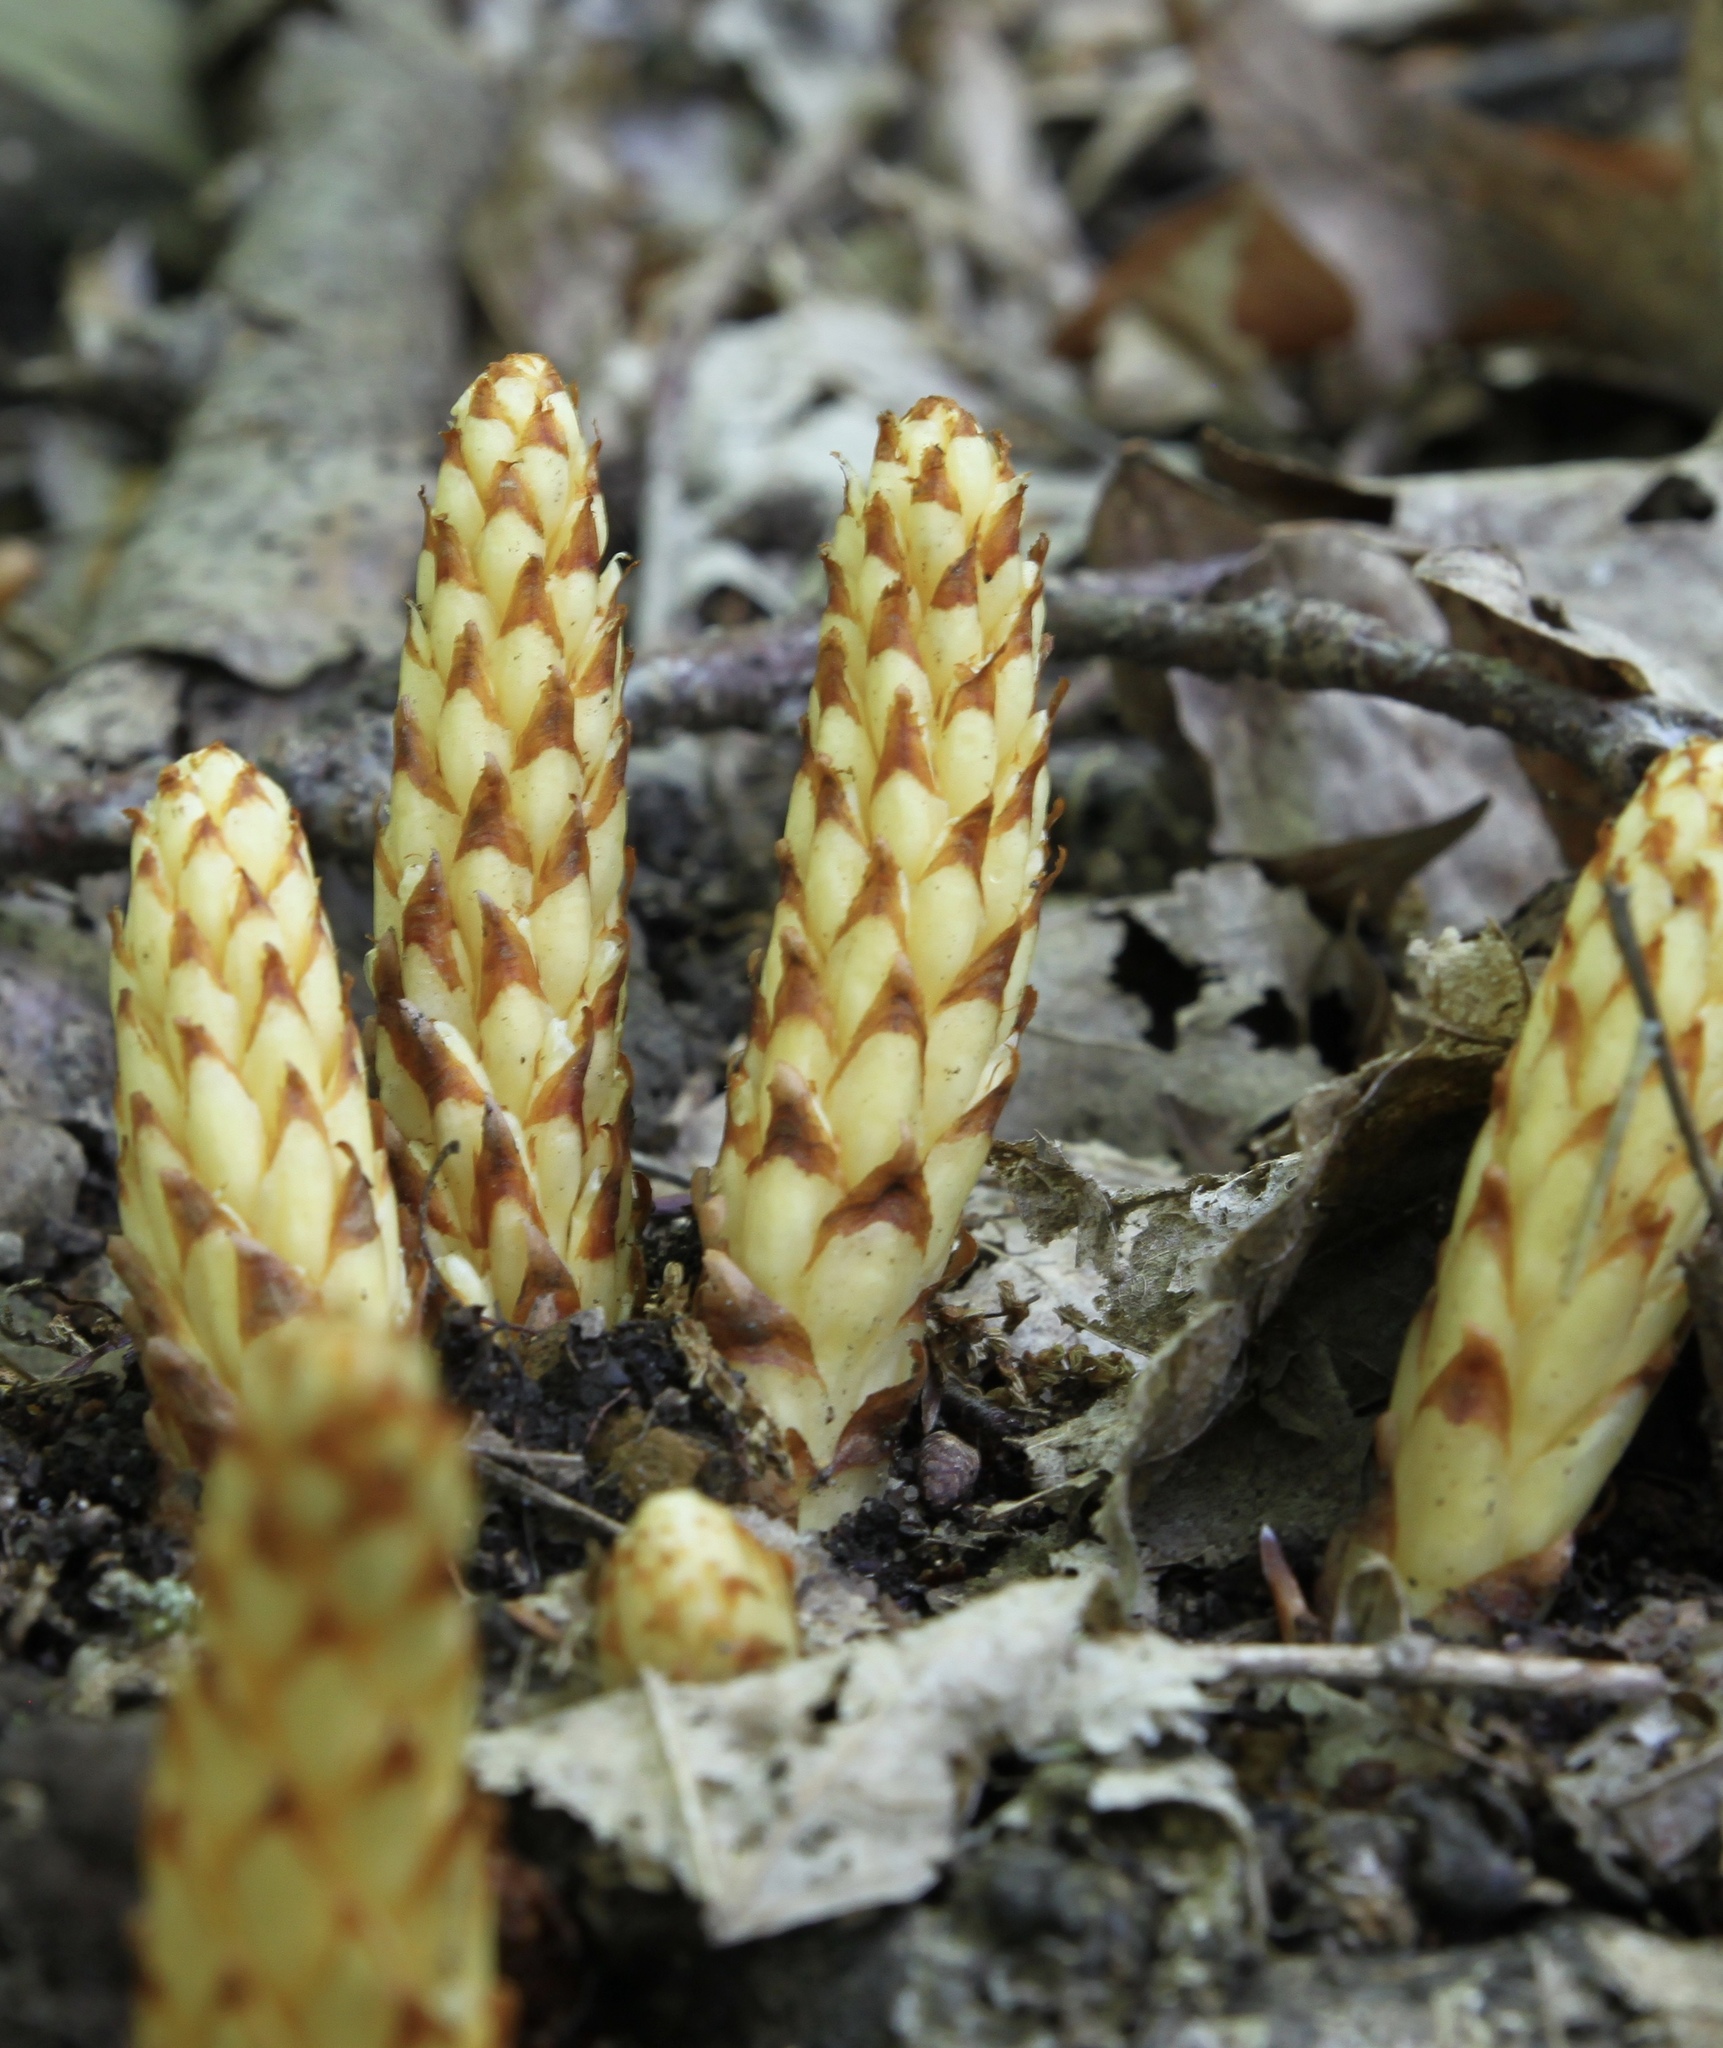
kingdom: Plantae
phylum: Tracheophyta
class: Magnoliopsida
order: Lamiales
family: Orobanchaceae
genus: Conopholis
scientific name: Conopholis americana
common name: American cancer-root
